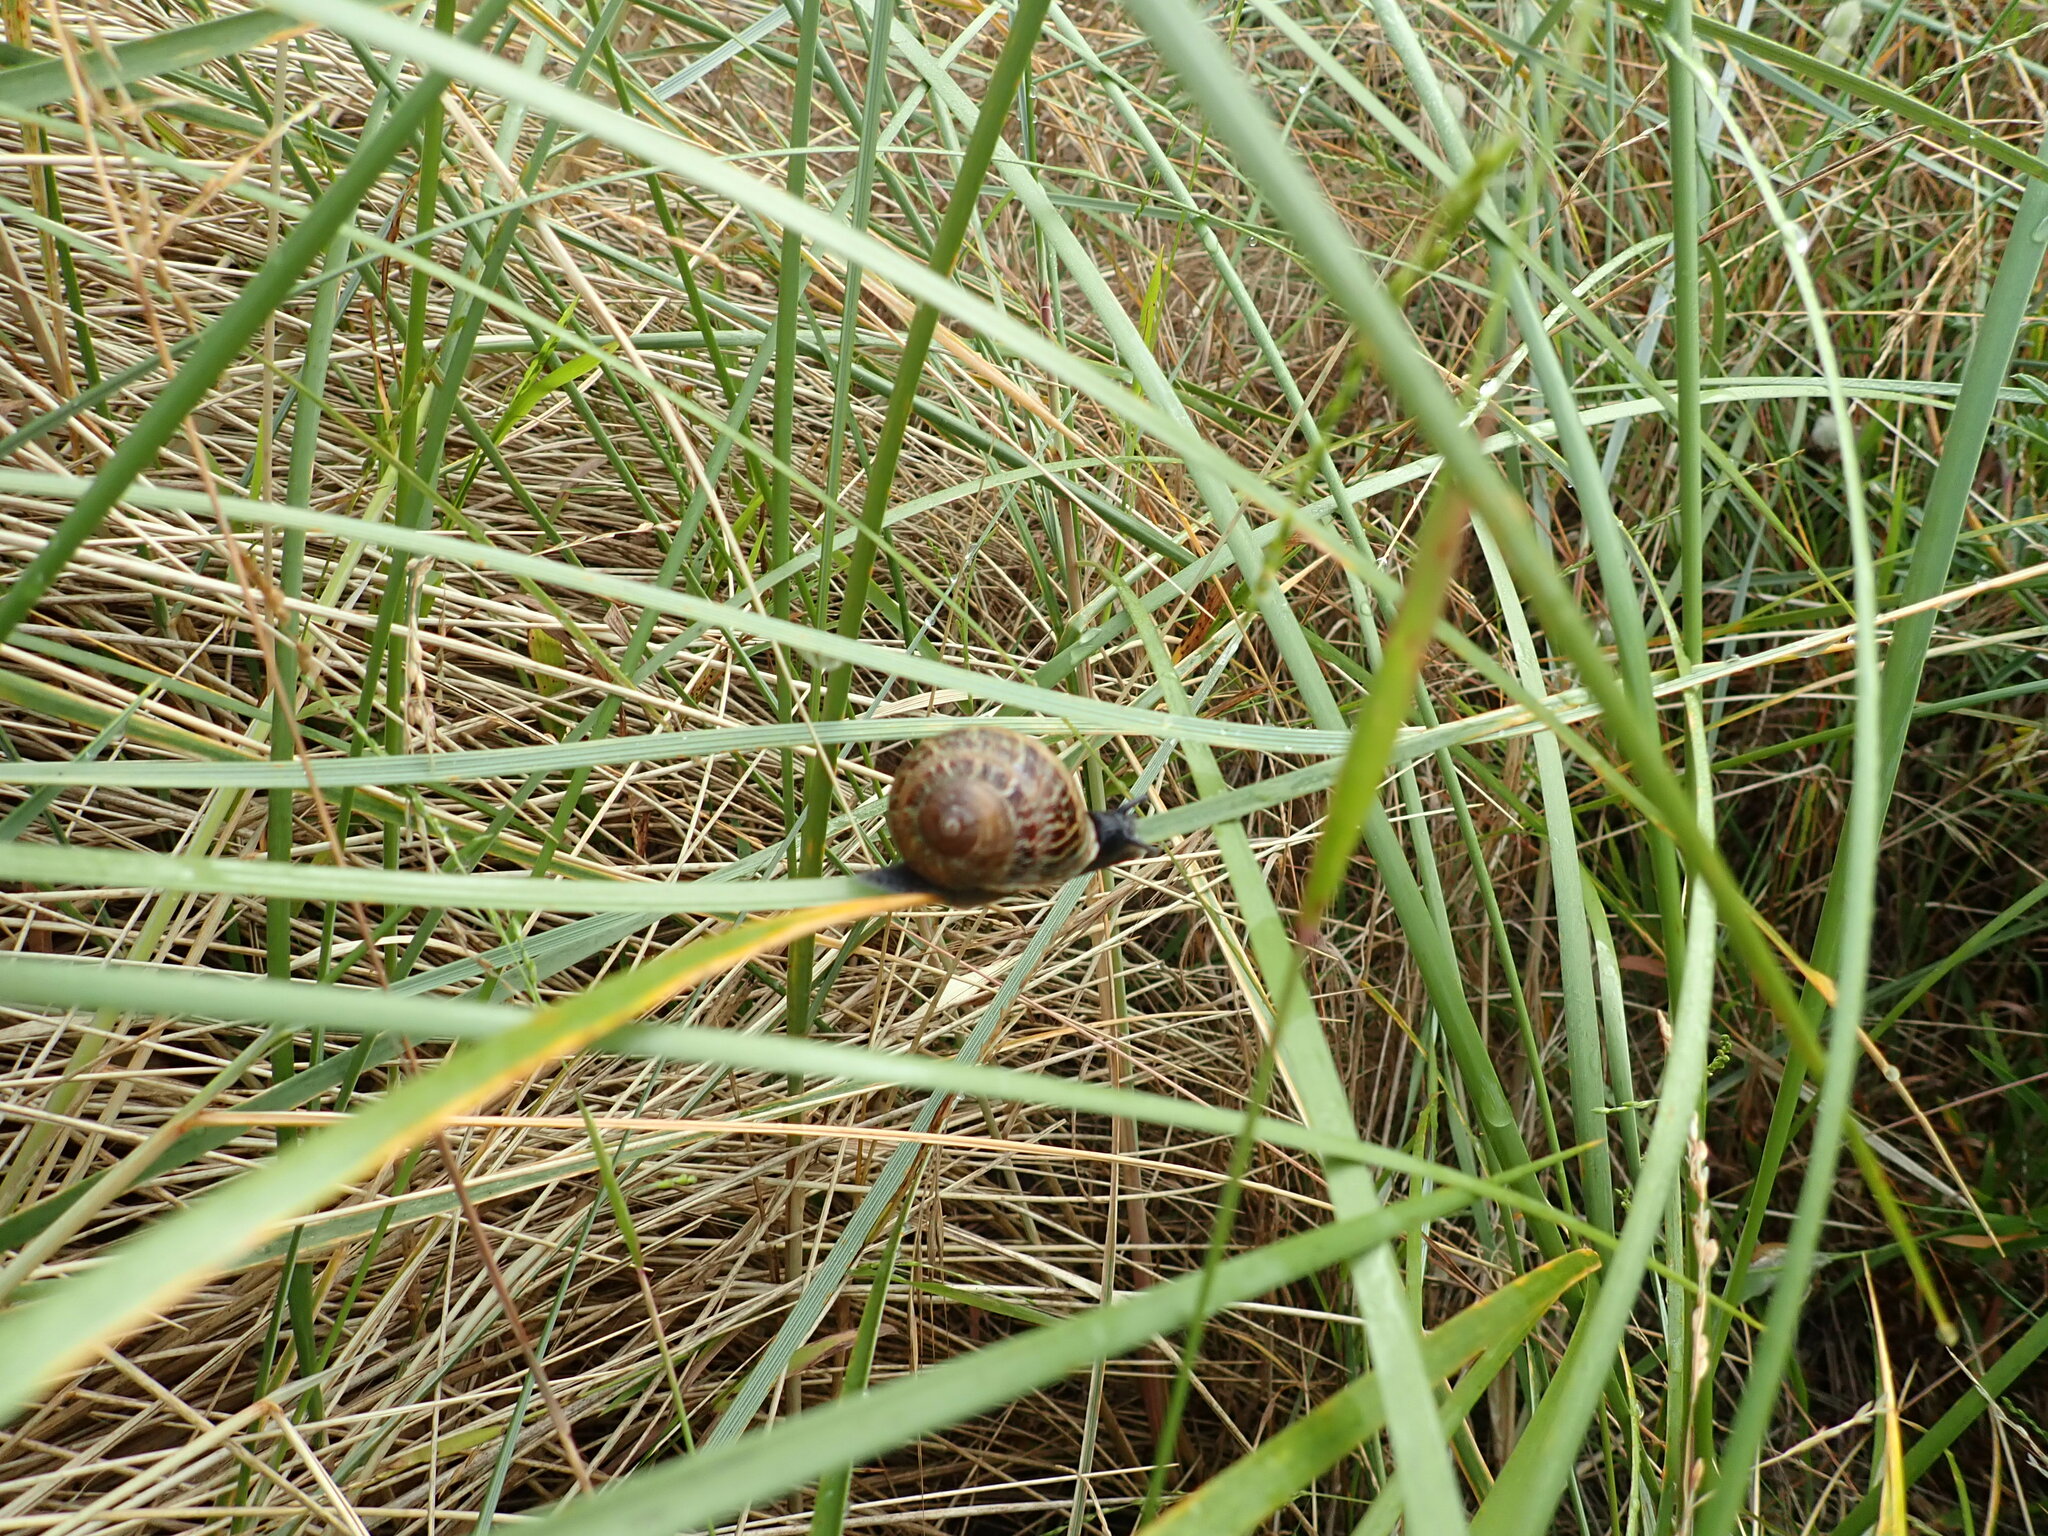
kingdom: Animalia
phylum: Mollusca
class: Gastropoda
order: Stylommatophora
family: Helicidae
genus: Cornu
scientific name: Cornu aspersum
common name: Brown garden snail
